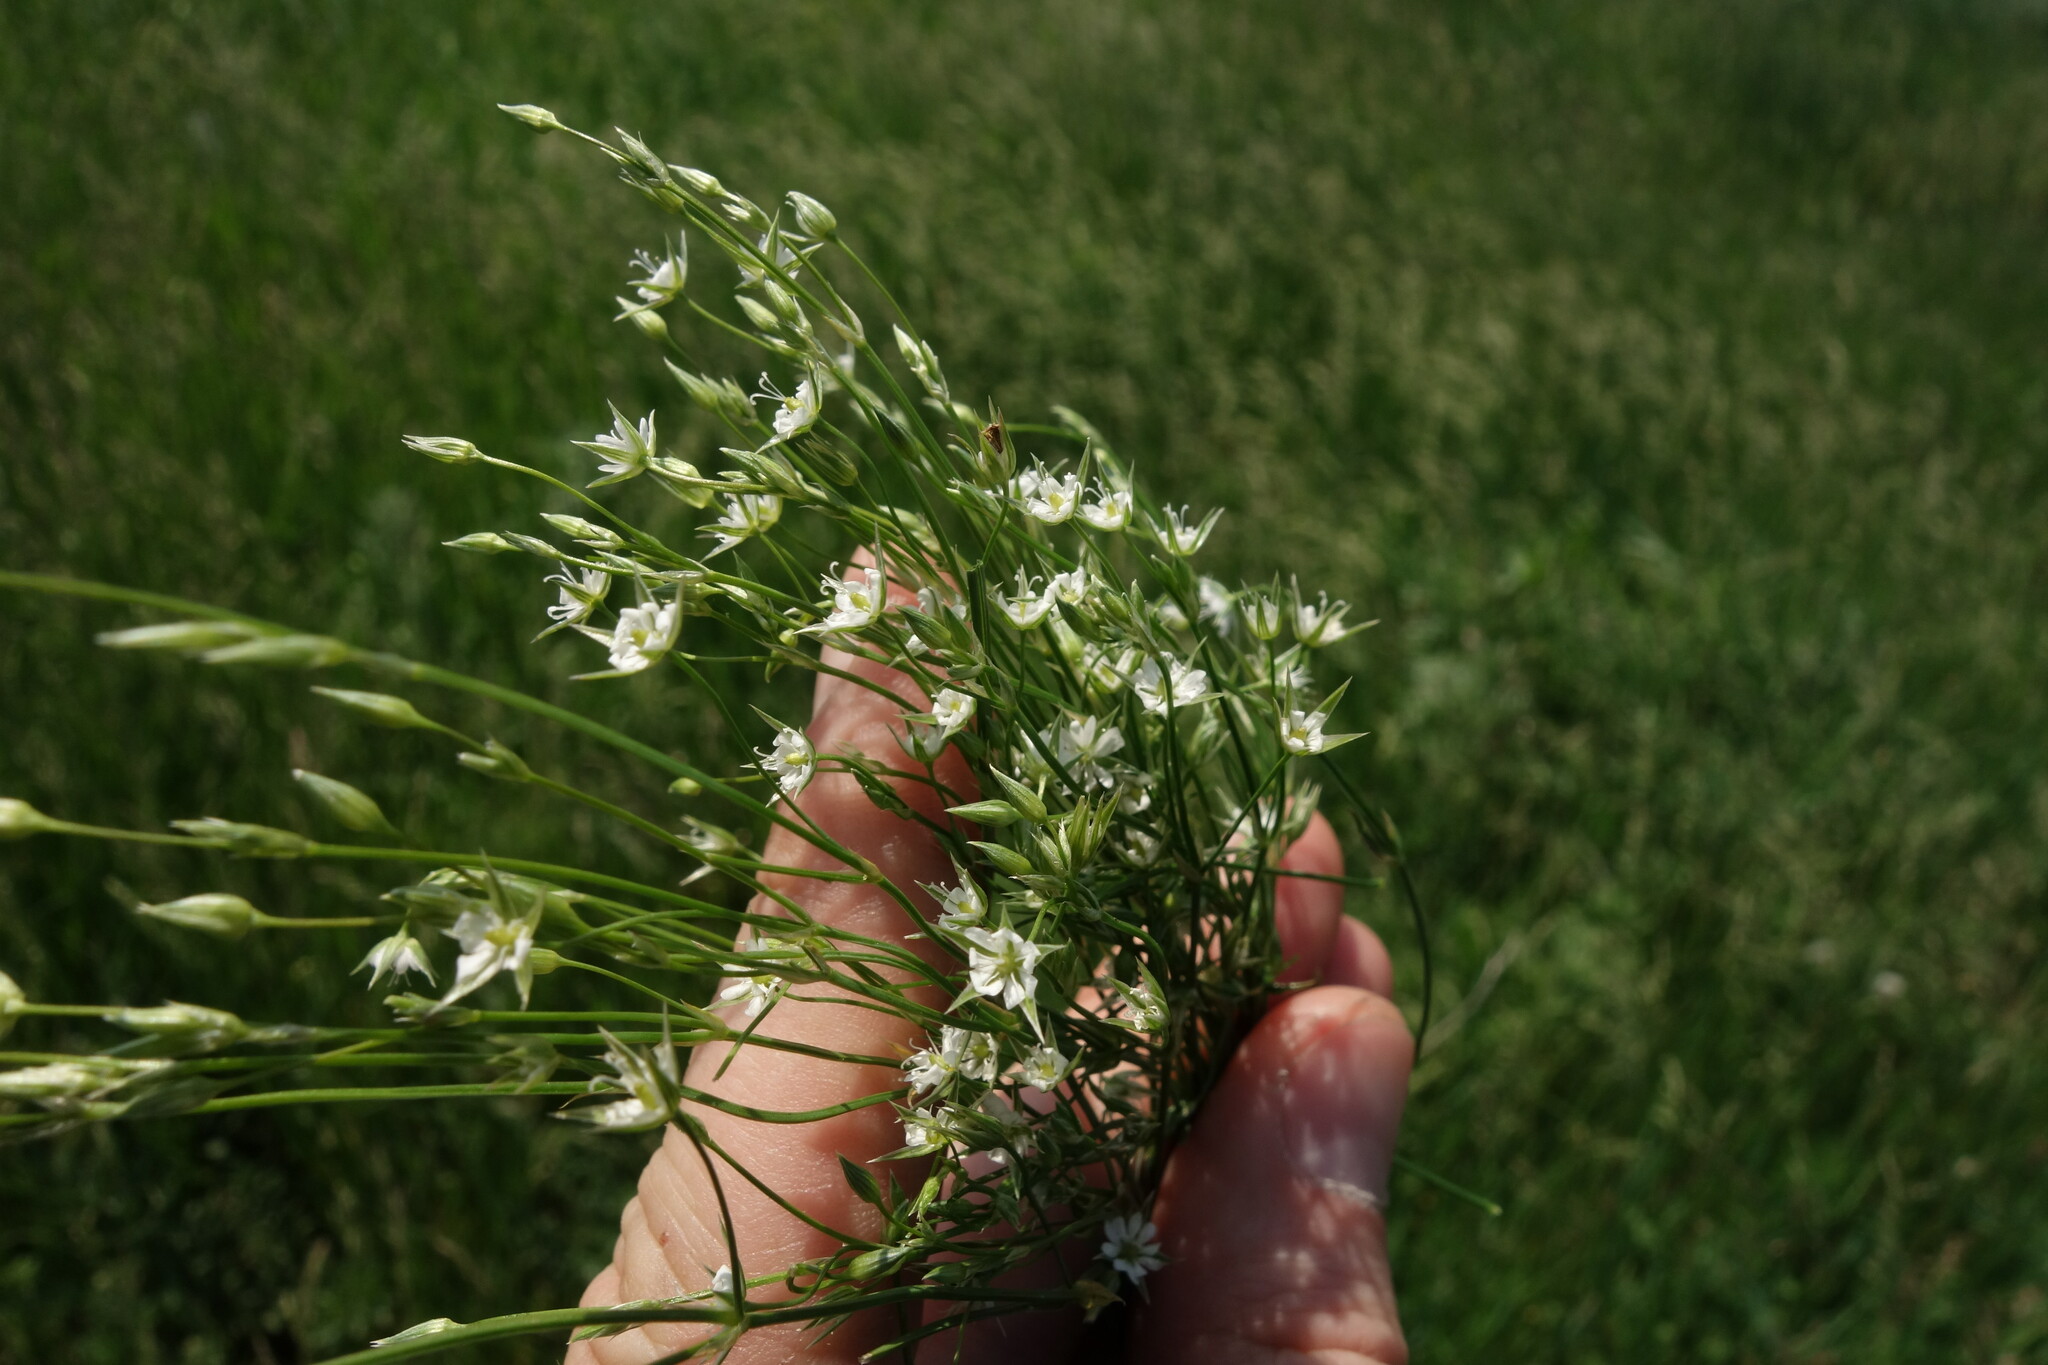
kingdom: Plantae
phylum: Tracheophyta
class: Magnoliopsida
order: Caryophyllales
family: Caryophyllaceae
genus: Stellaria
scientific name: Stellaria graminea
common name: Grass-like starwort
